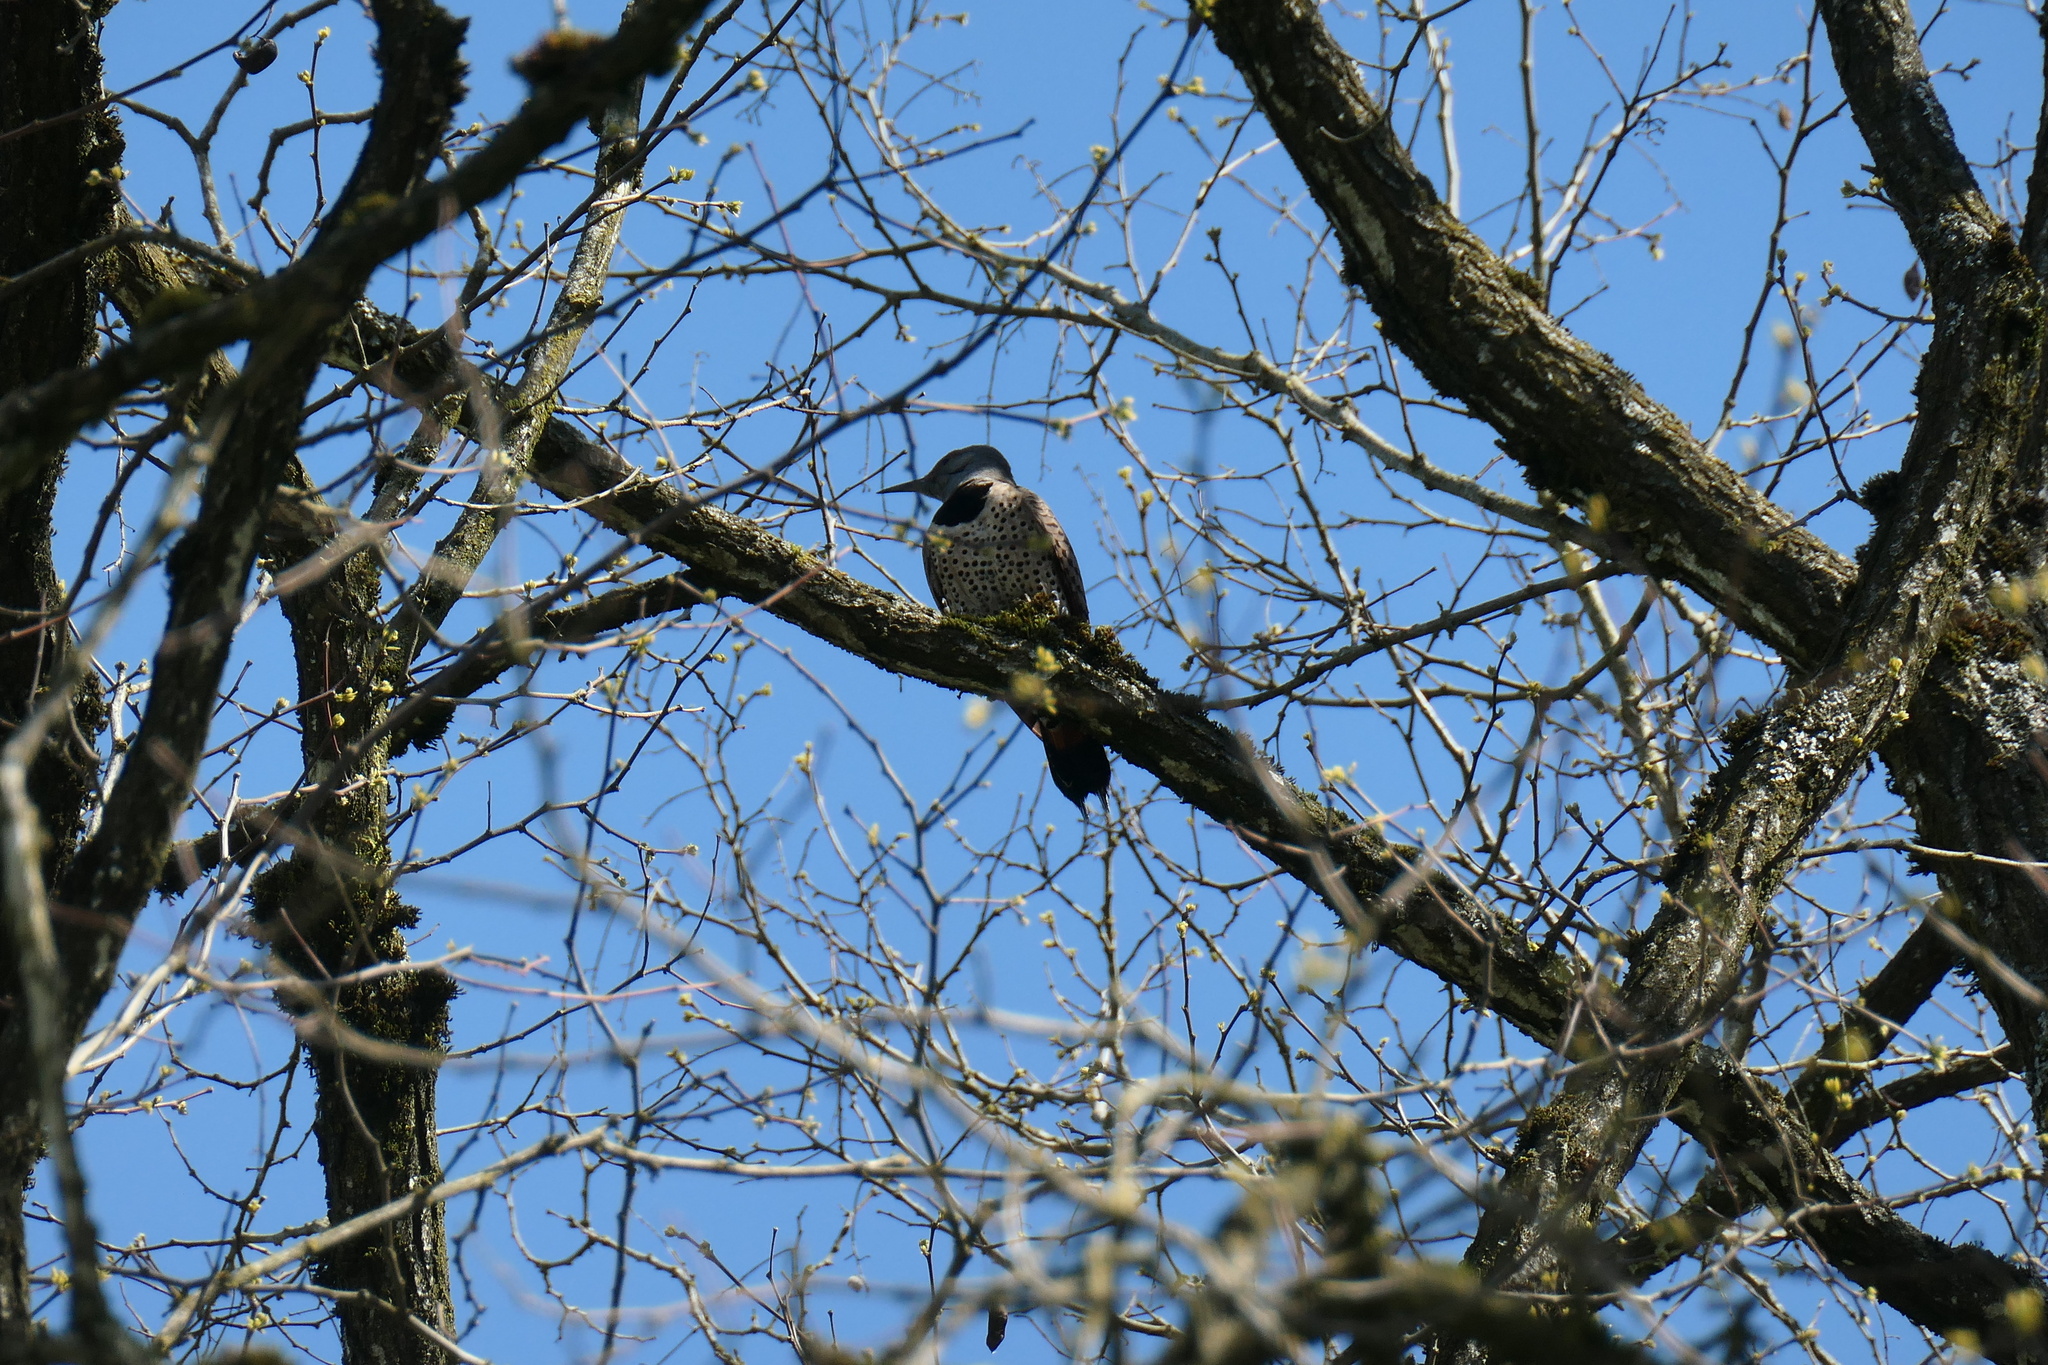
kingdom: Animalia
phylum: Chordata
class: Aves
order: Piciformes
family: Picidae
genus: Colaptes
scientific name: Colaptes auratus
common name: Northern flicker
